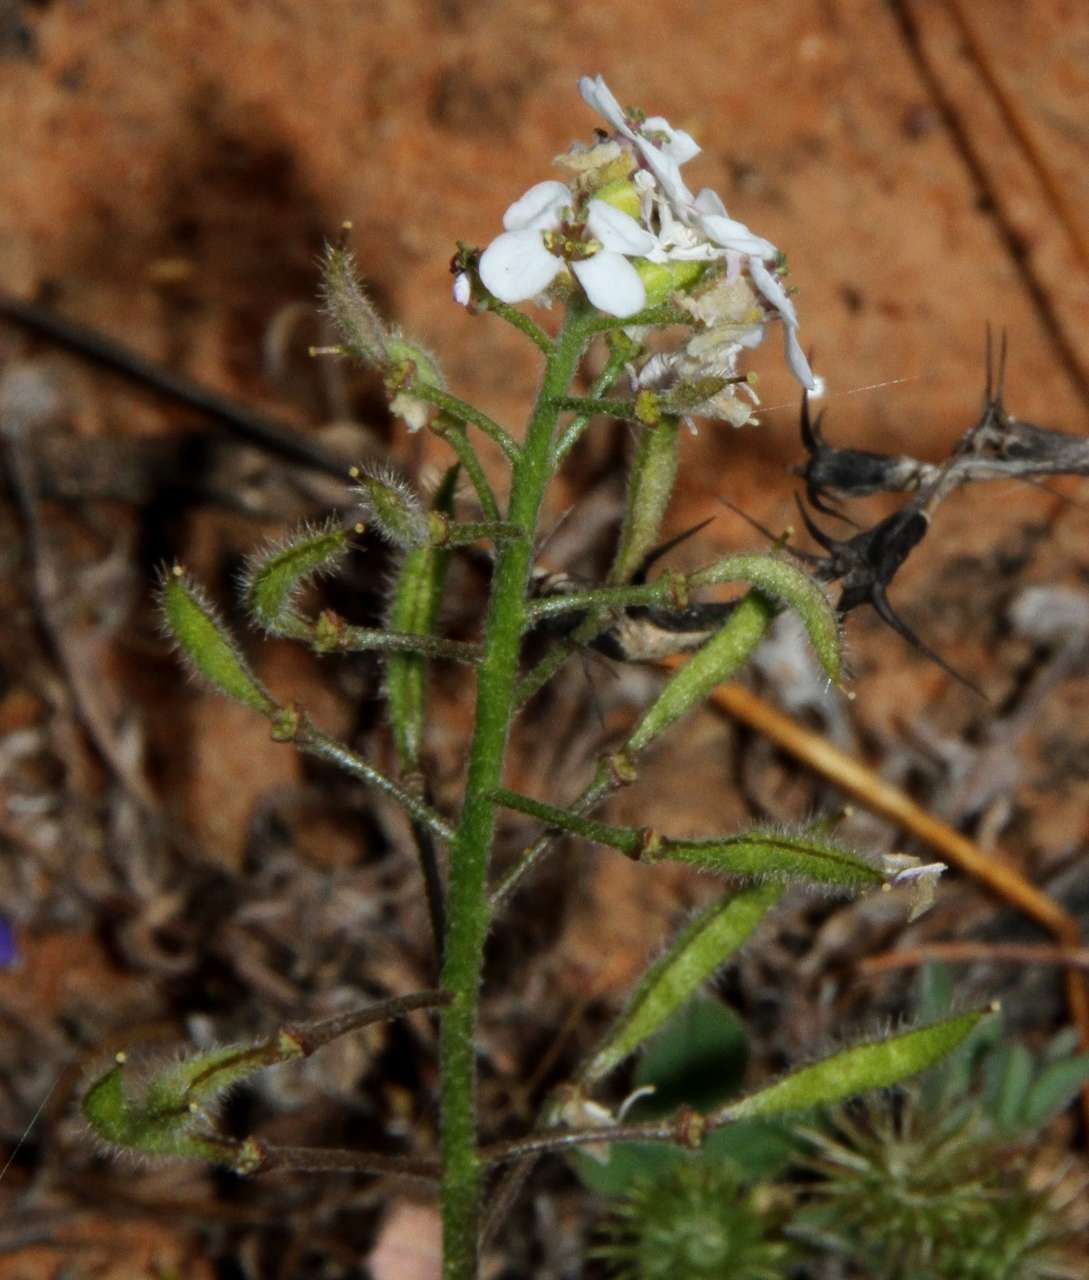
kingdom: Plantae
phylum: Tracheophyta
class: Magnoliopsida
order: Brassicales
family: Brassicaceae
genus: Harmsiodoxa
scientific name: Harmsiodoxa blennodioides
